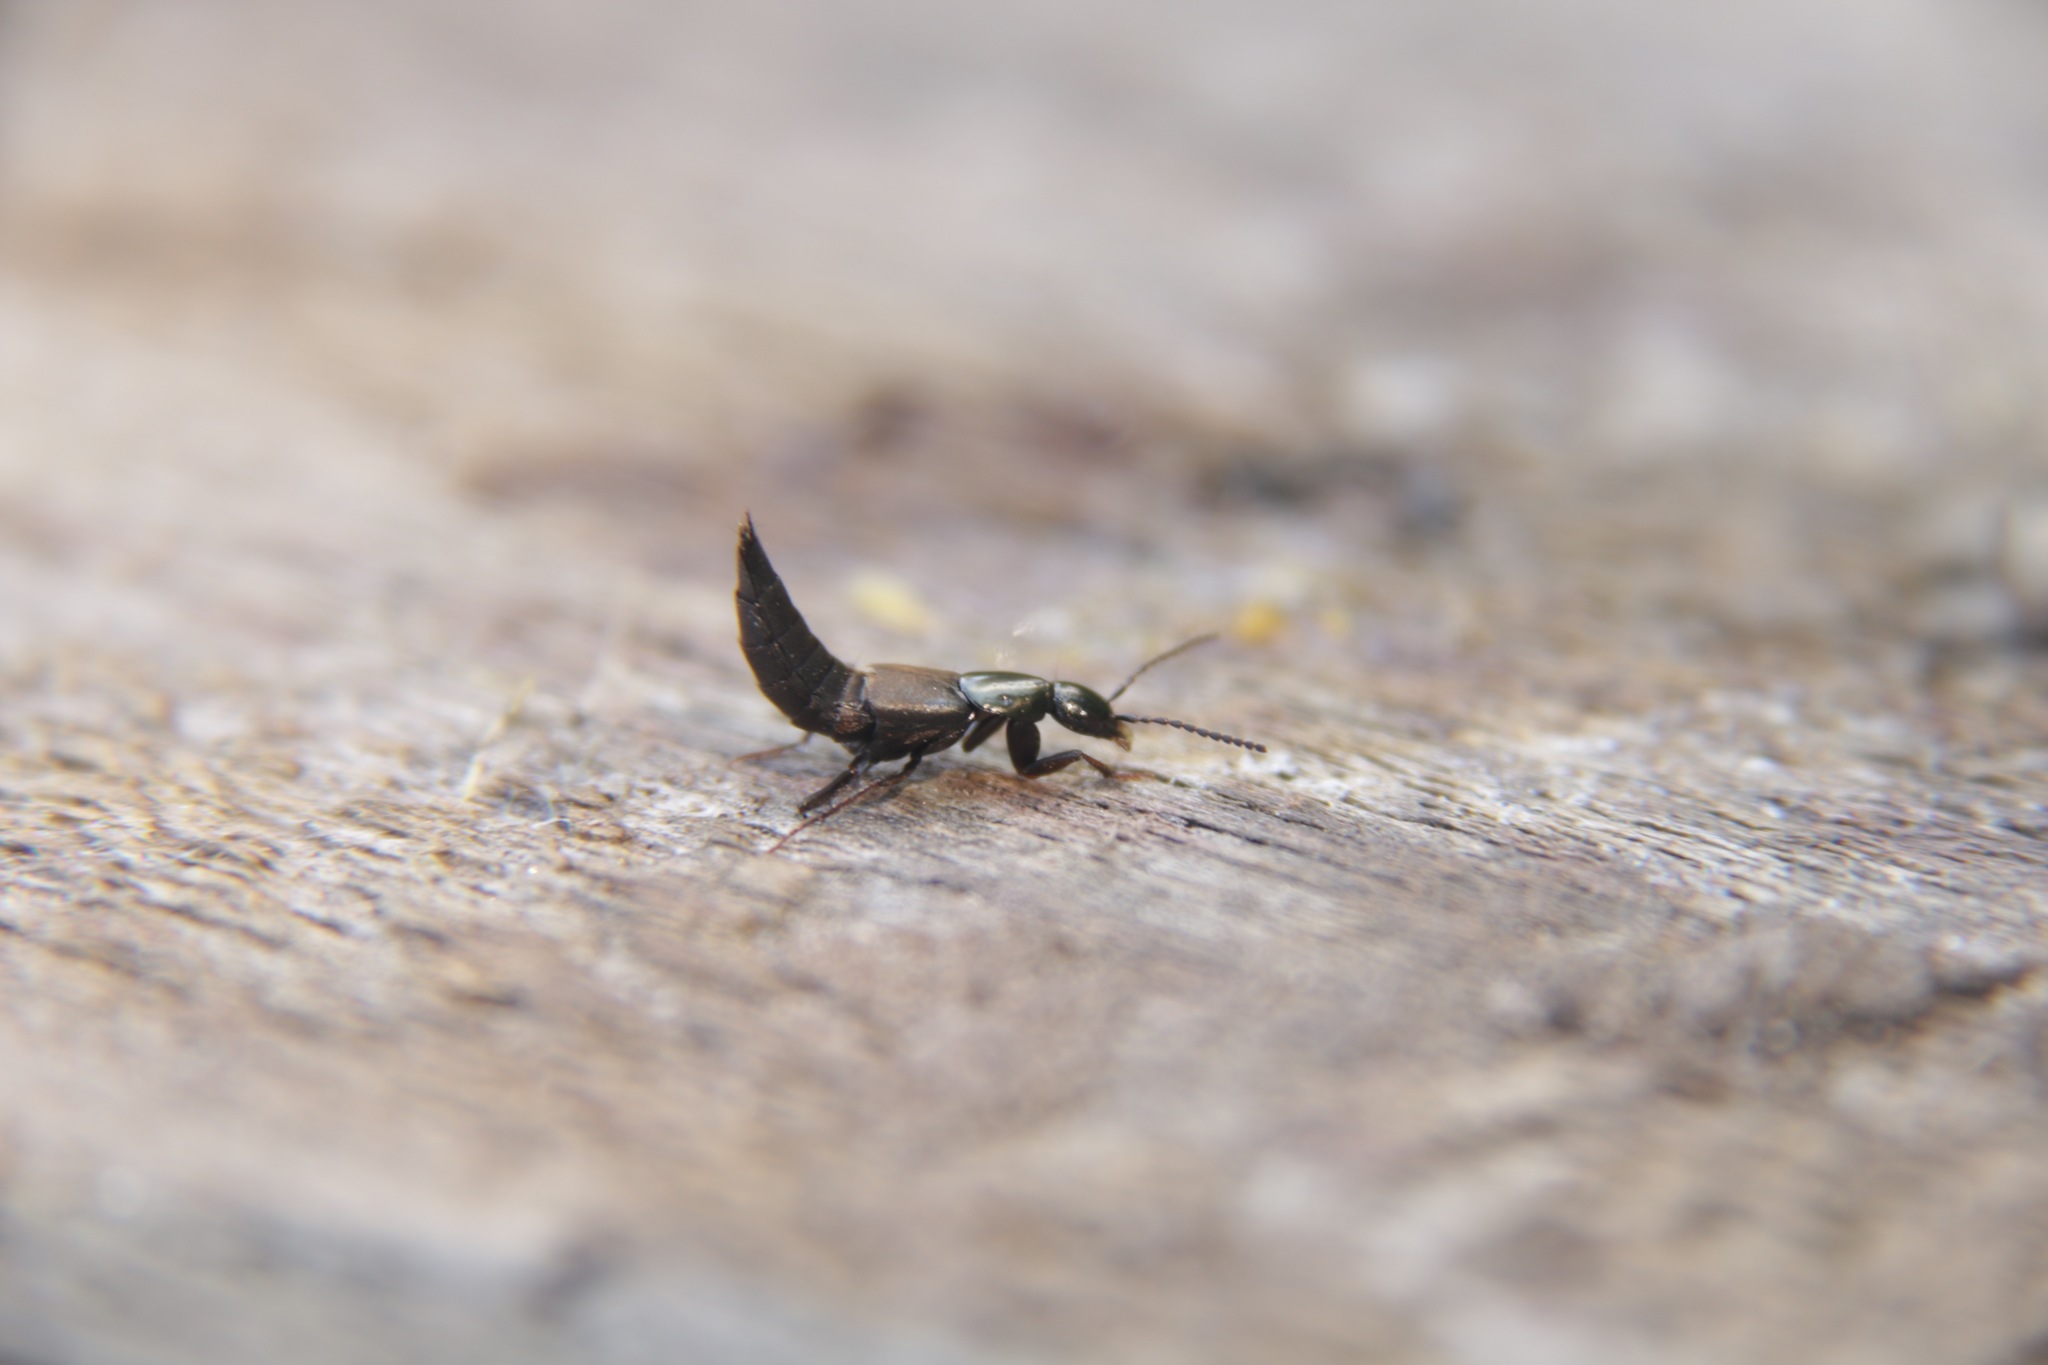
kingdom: Animalia
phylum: Arthropoda
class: Insecta
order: Coleoptera
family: Staphylinidae
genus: Philonthus
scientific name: Philonthus decorus
